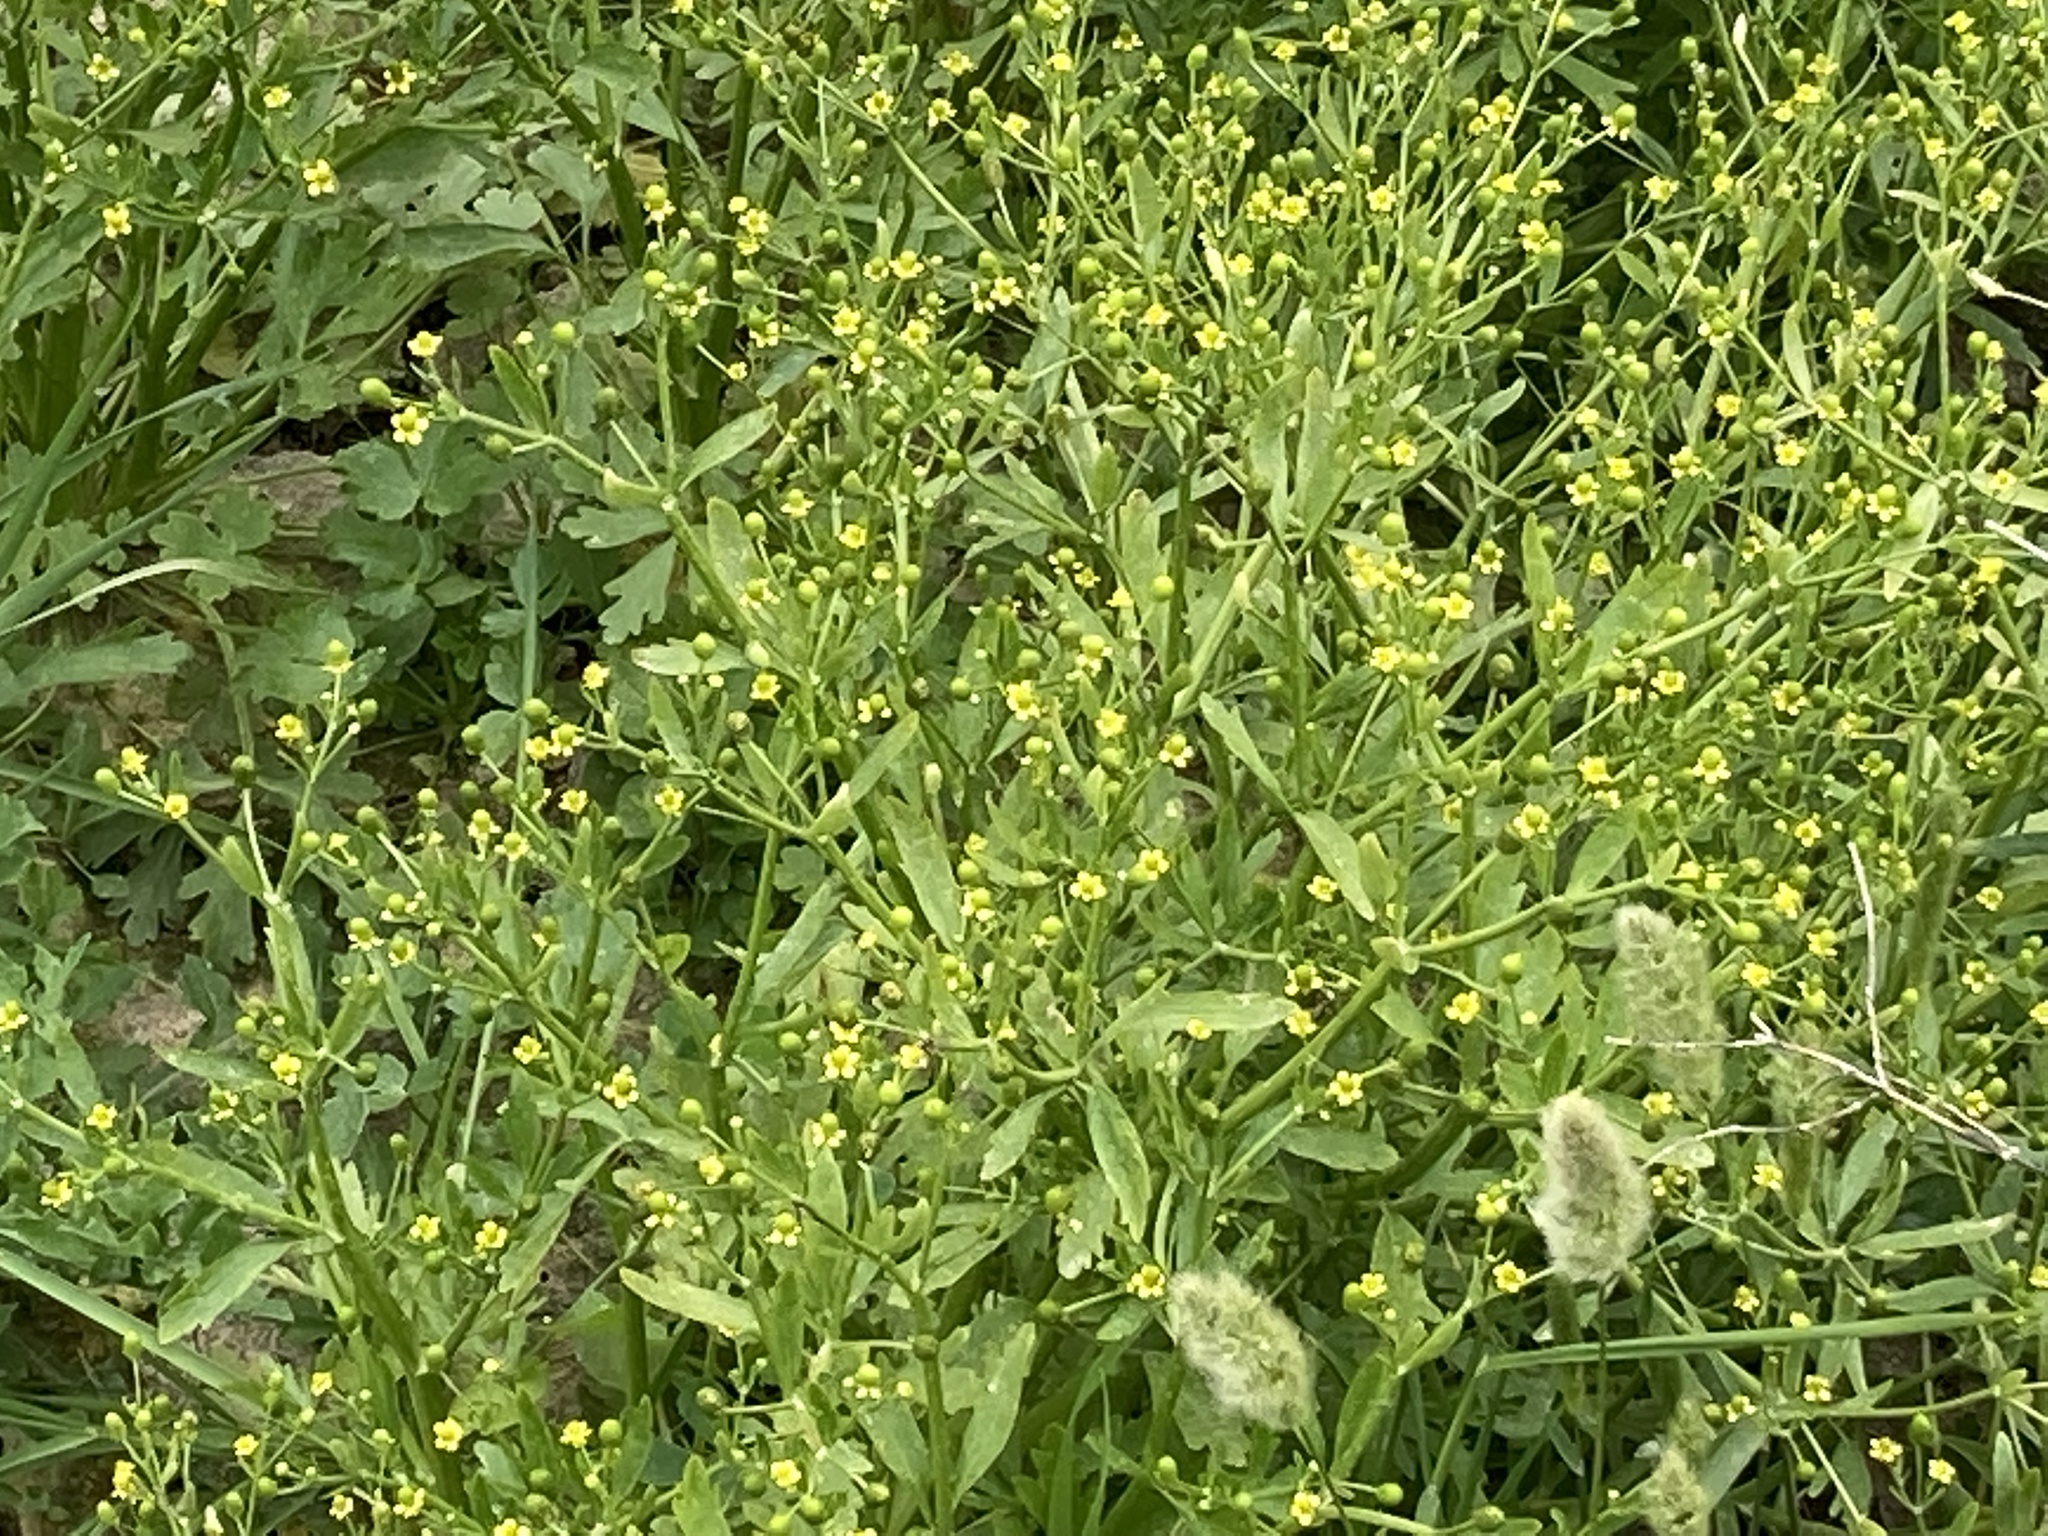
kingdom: Plantae
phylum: Tracheophyta
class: Magnoliopsida
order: Ranunculales
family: Ranunculaceae
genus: Ranunculus
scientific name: Ranunculus sceleratus
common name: Celery-leaved buttercup
